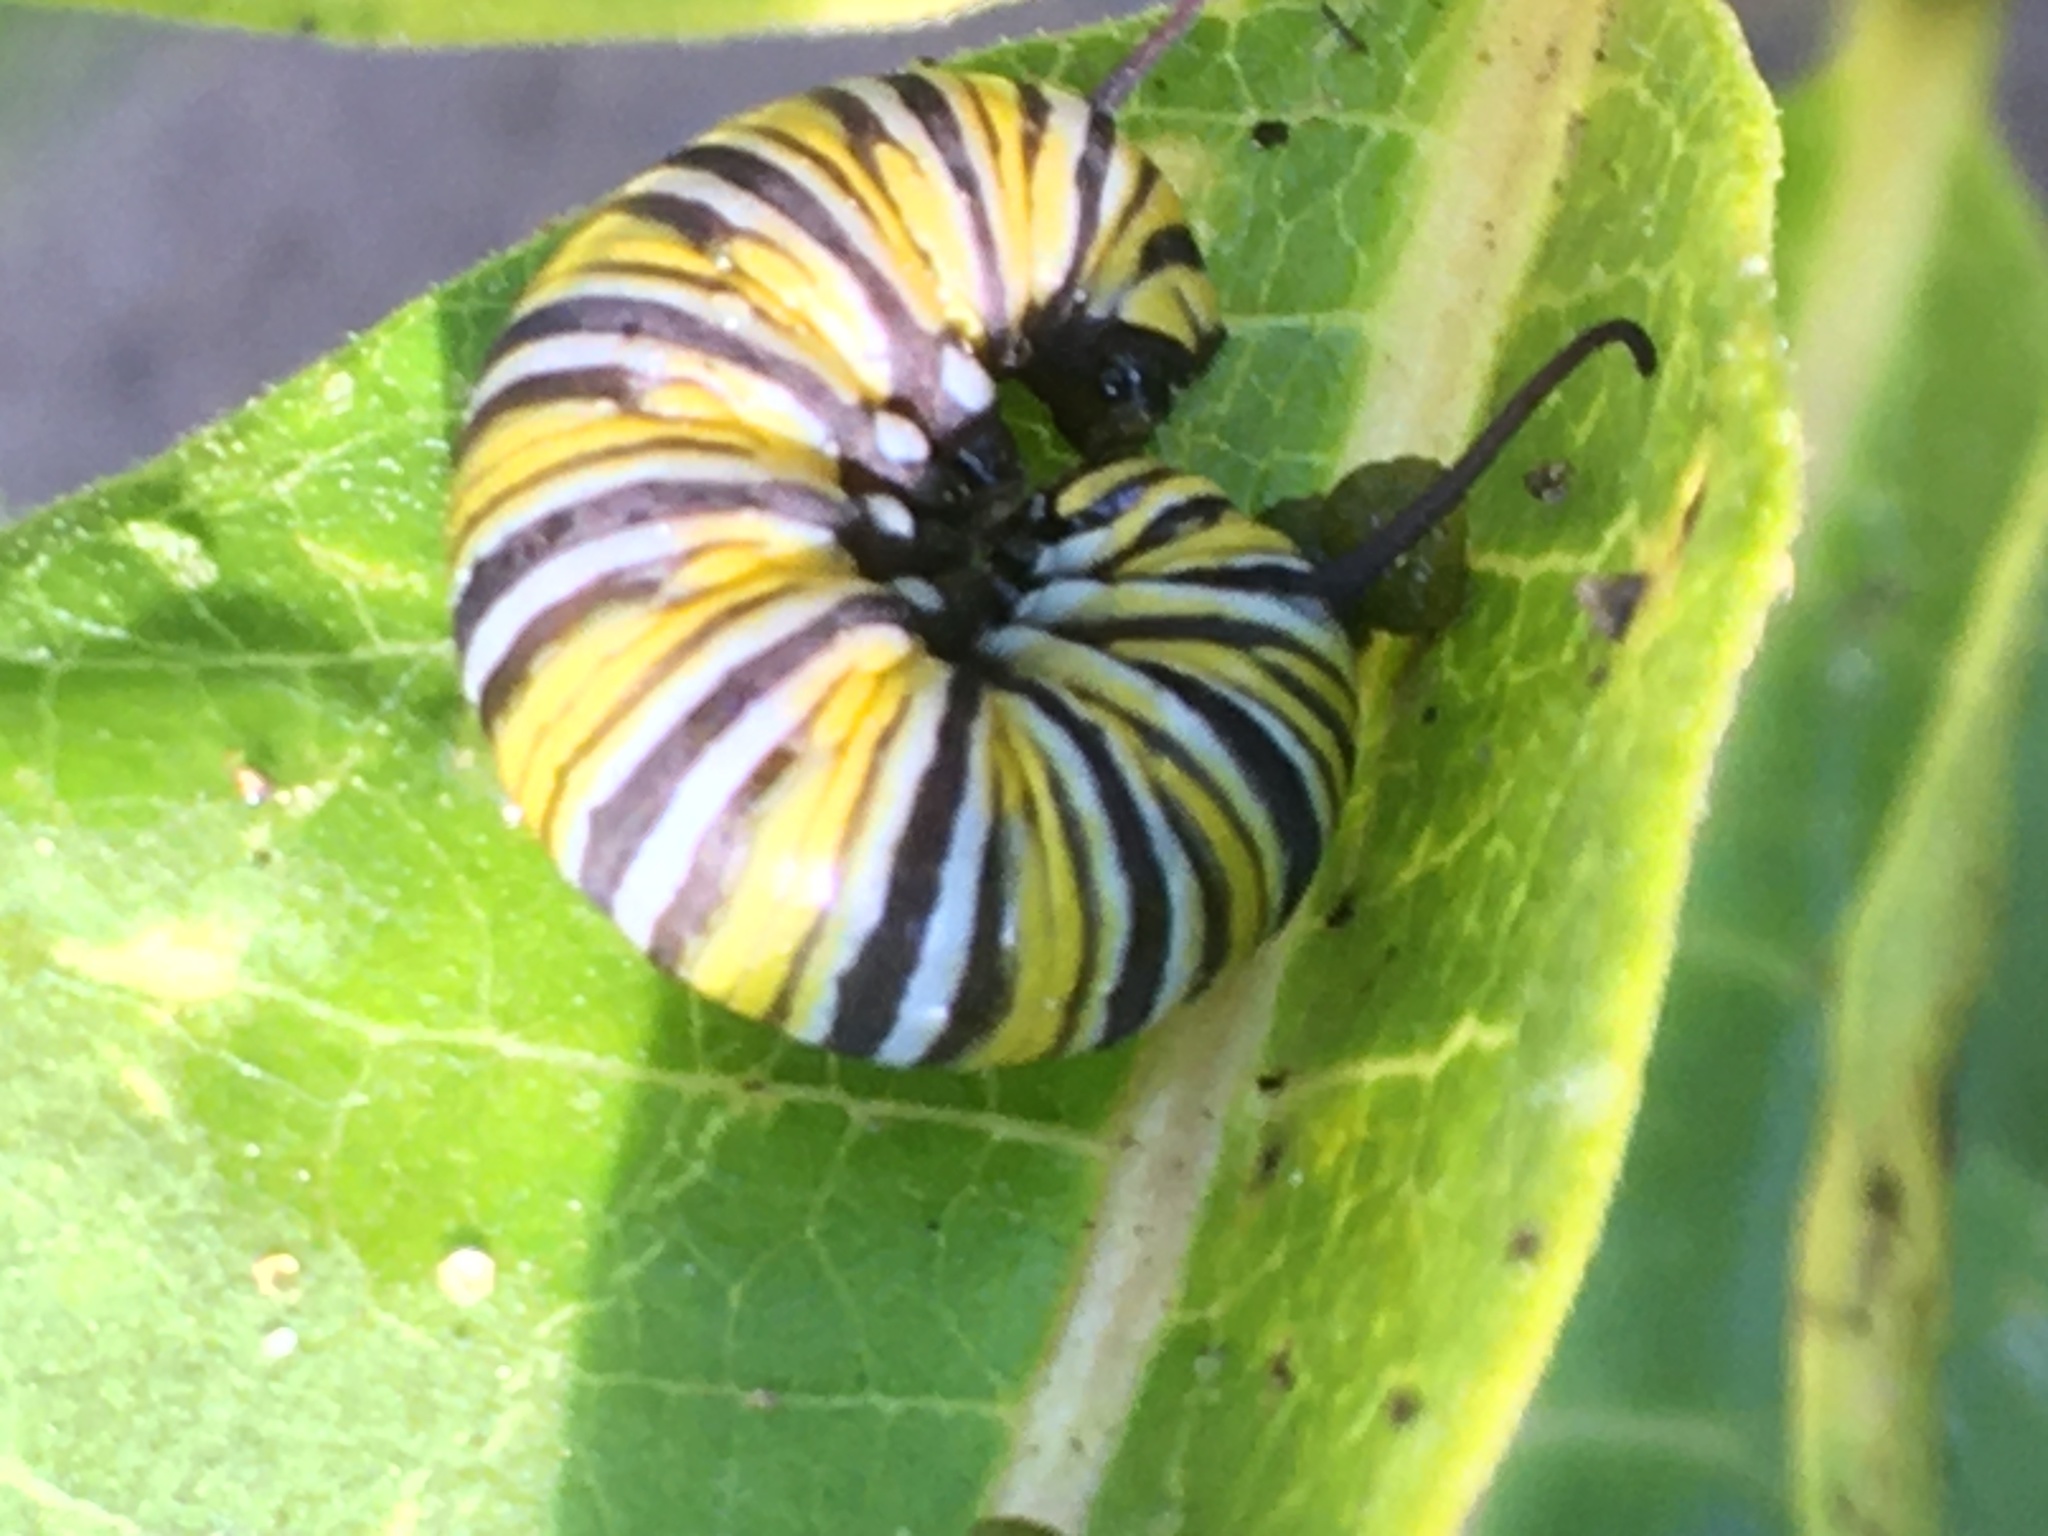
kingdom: Animalia
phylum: Arthropoda
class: Insecta
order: Lepidoptera
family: Nymphalidae
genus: Danaus
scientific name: Danaus plexippus
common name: Monarch
